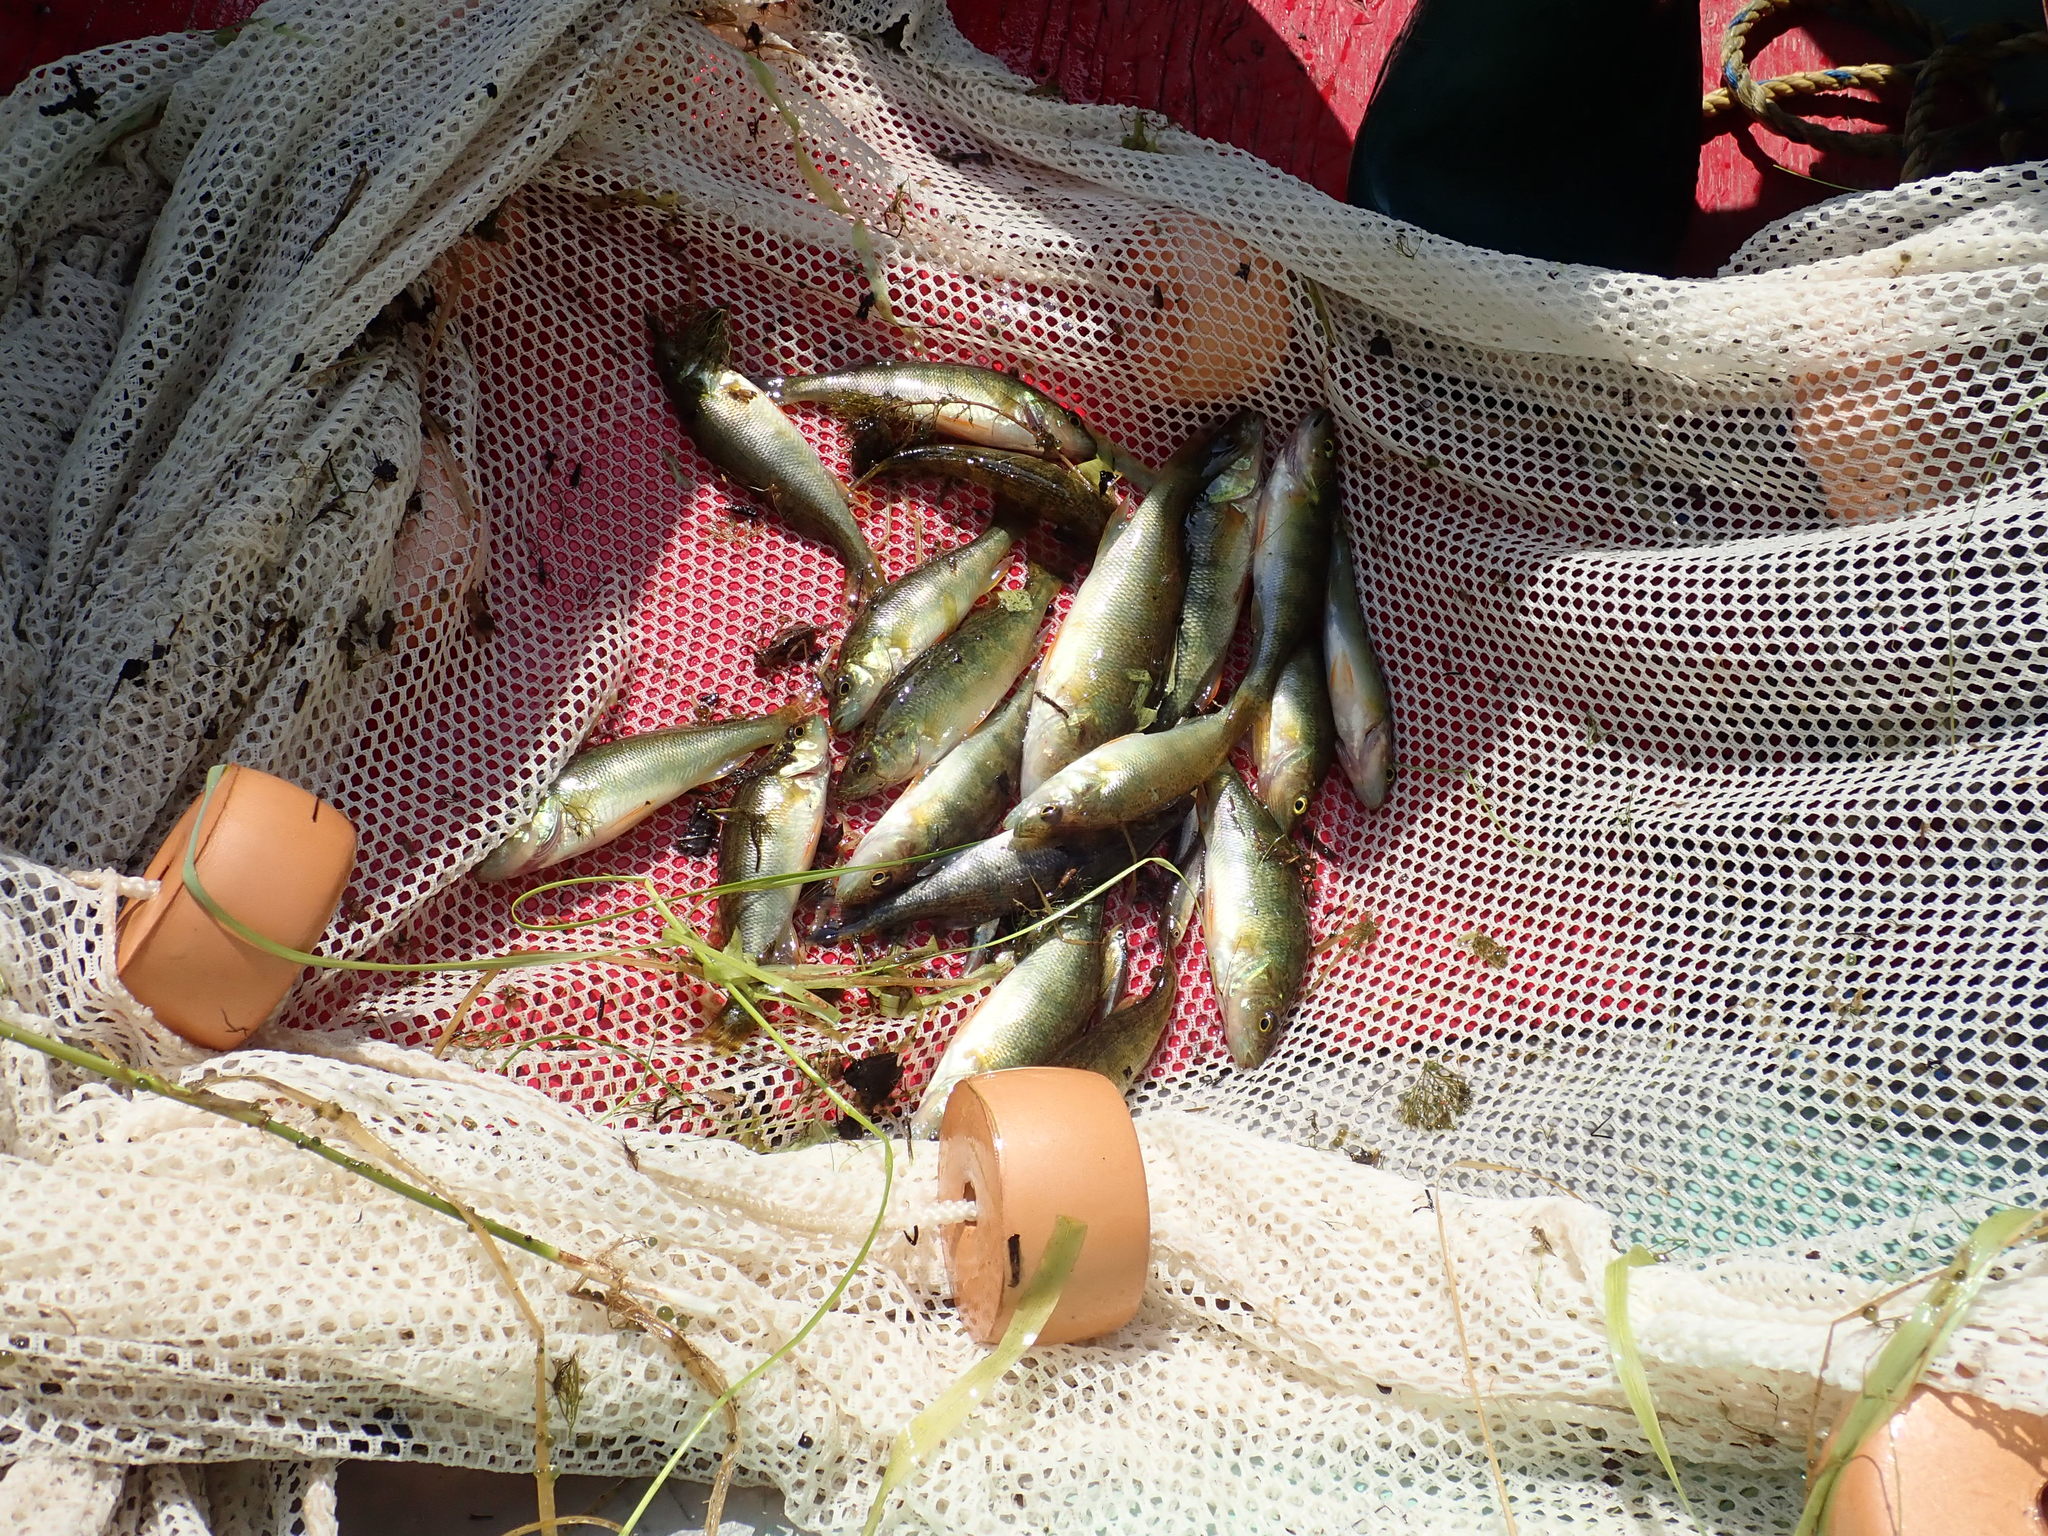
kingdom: Animalia
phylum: Chordata
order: Perciformes
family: Percidae
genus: Perca
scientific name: Perca flavescens
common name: Yellow perch
